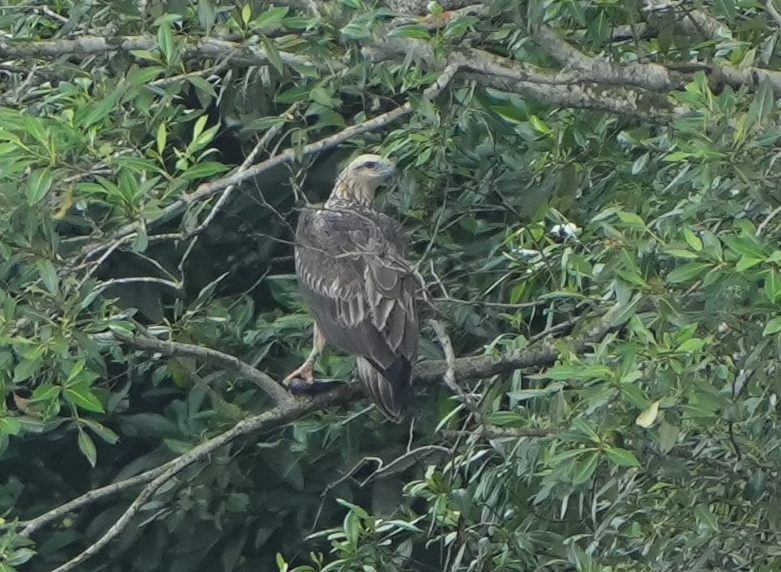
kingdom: Animalia
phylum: Chordata
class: Aves
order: Accipitriformes
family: Accipitridae
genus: Haliaeetus
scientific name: Haliaeetus leucogaster
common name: White-bellied sea eagle
